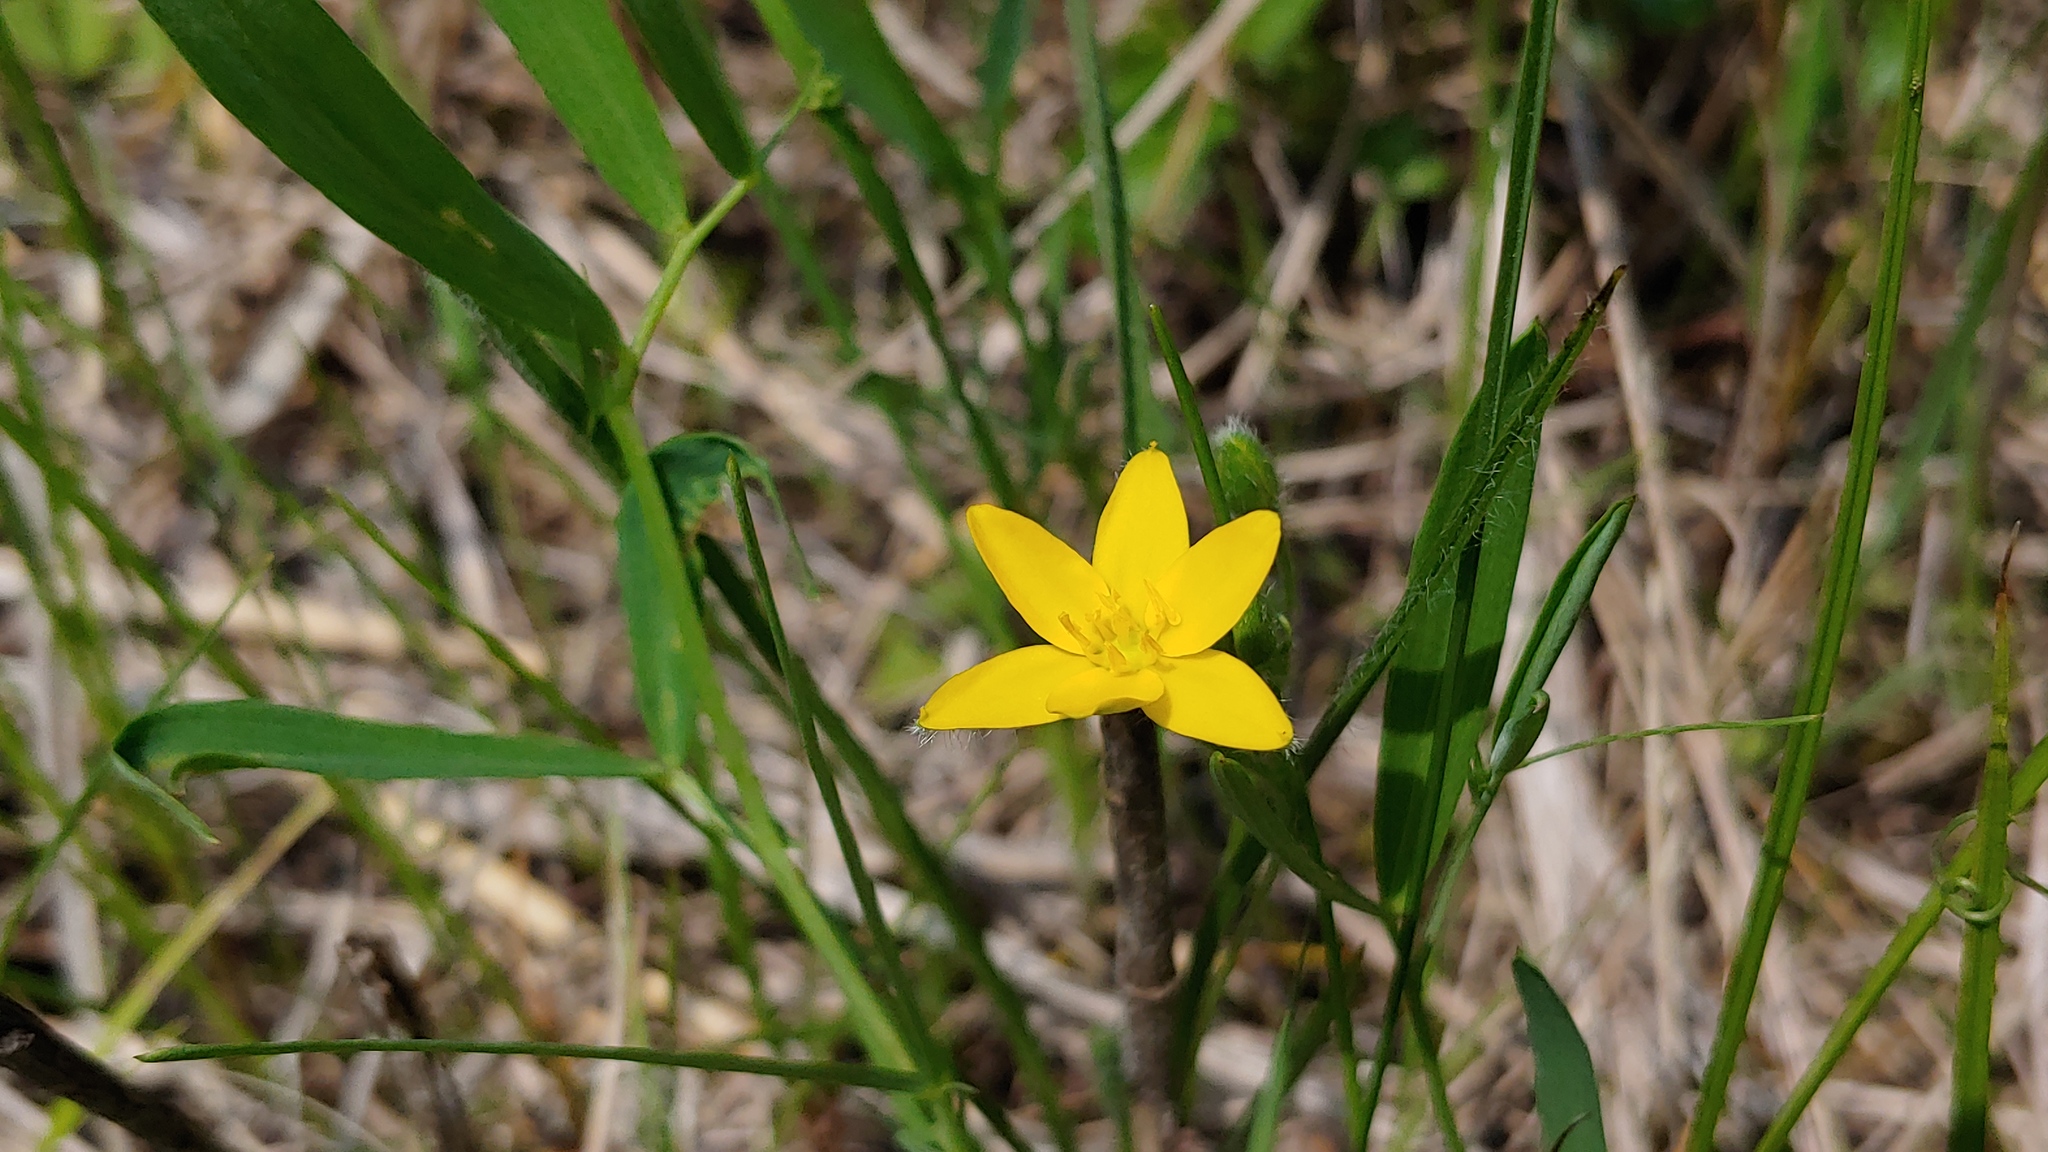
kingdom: Plantae
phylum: Tracheophyta
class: Liliopsida
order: Asparagales
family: Hypoxidaceae
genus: Hypoxis
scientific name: Hypoxis hirsuta
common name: Common goldstar
